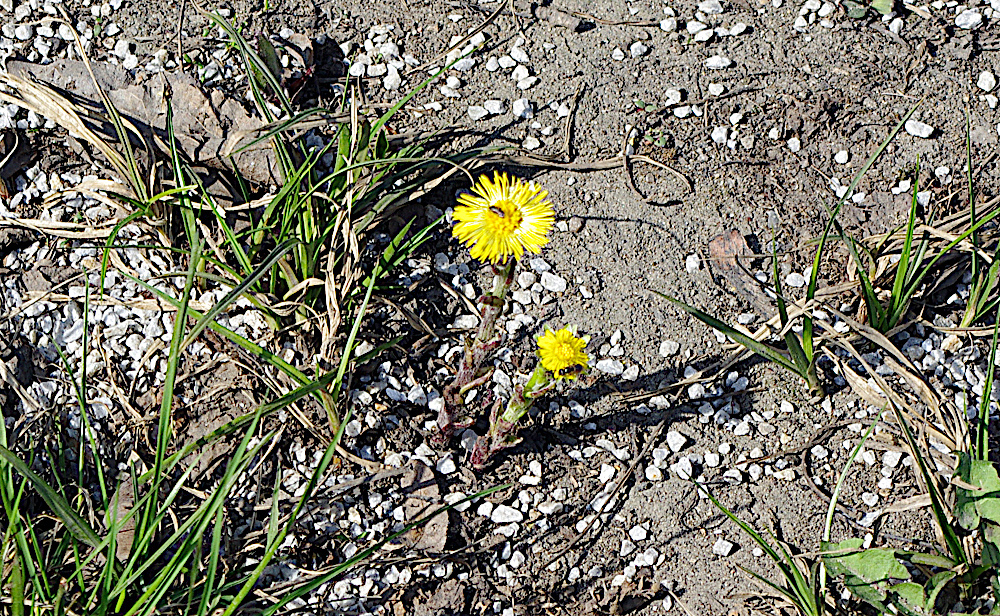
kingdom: Plantae
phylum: Tracheophyta
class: Magnoliopsida
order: Asterales
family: Asteraceae
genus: Tussilago
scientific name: Tussilago farfara
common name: Coltsfoot
